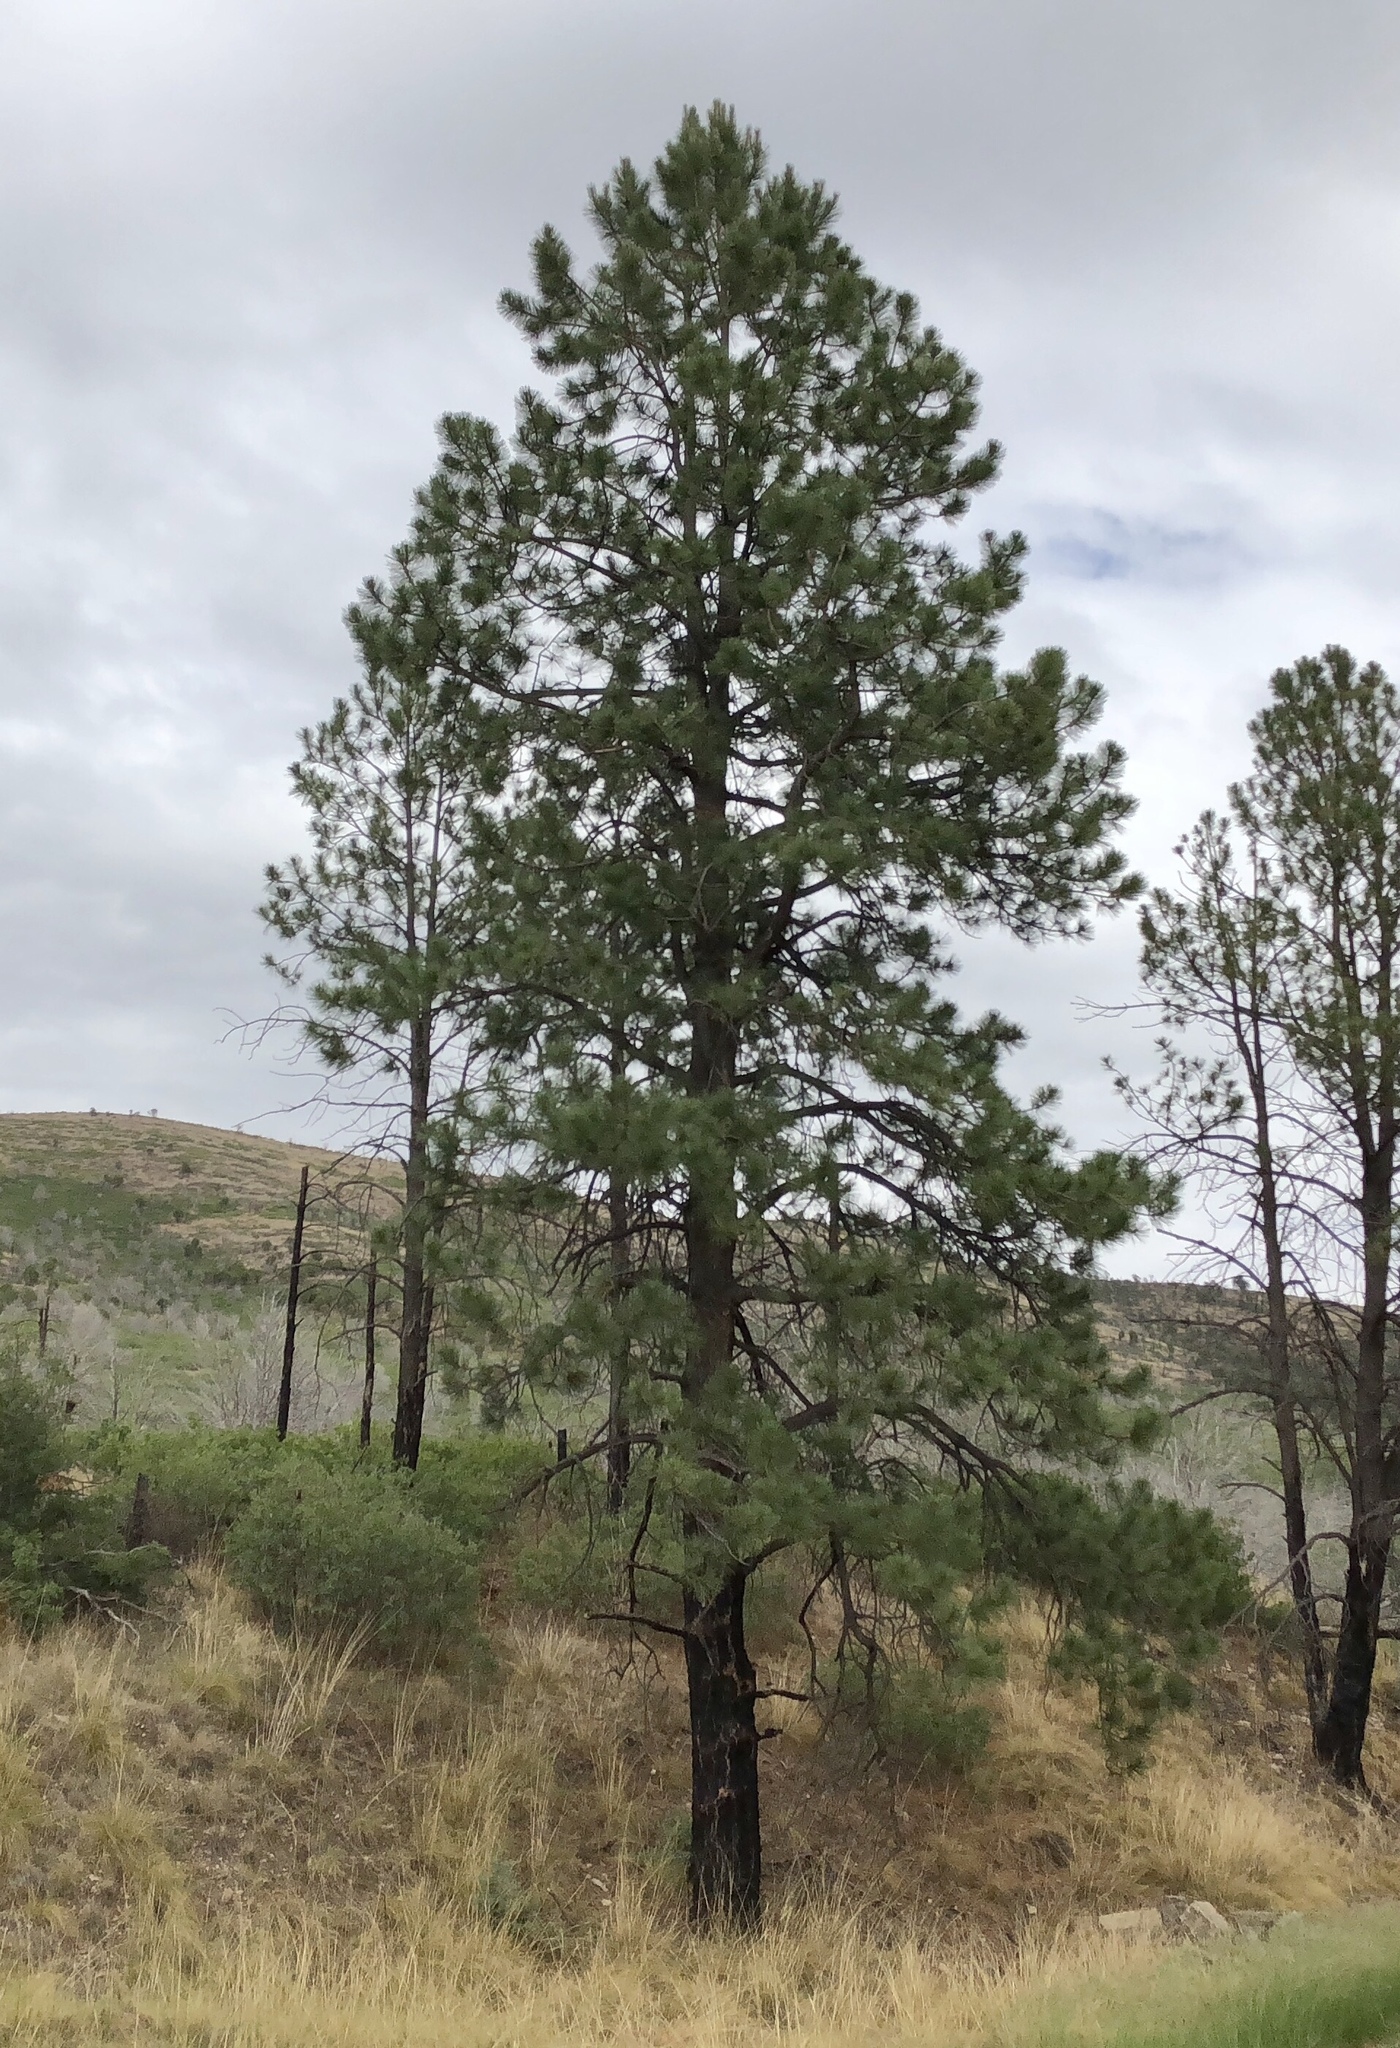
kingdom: Plantae
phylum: Tracheophyta
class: Pinopsida
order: Pinales
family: Pinaceae
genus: Pinus
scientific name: Pinus ponderosa
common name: Western yellow-pine
